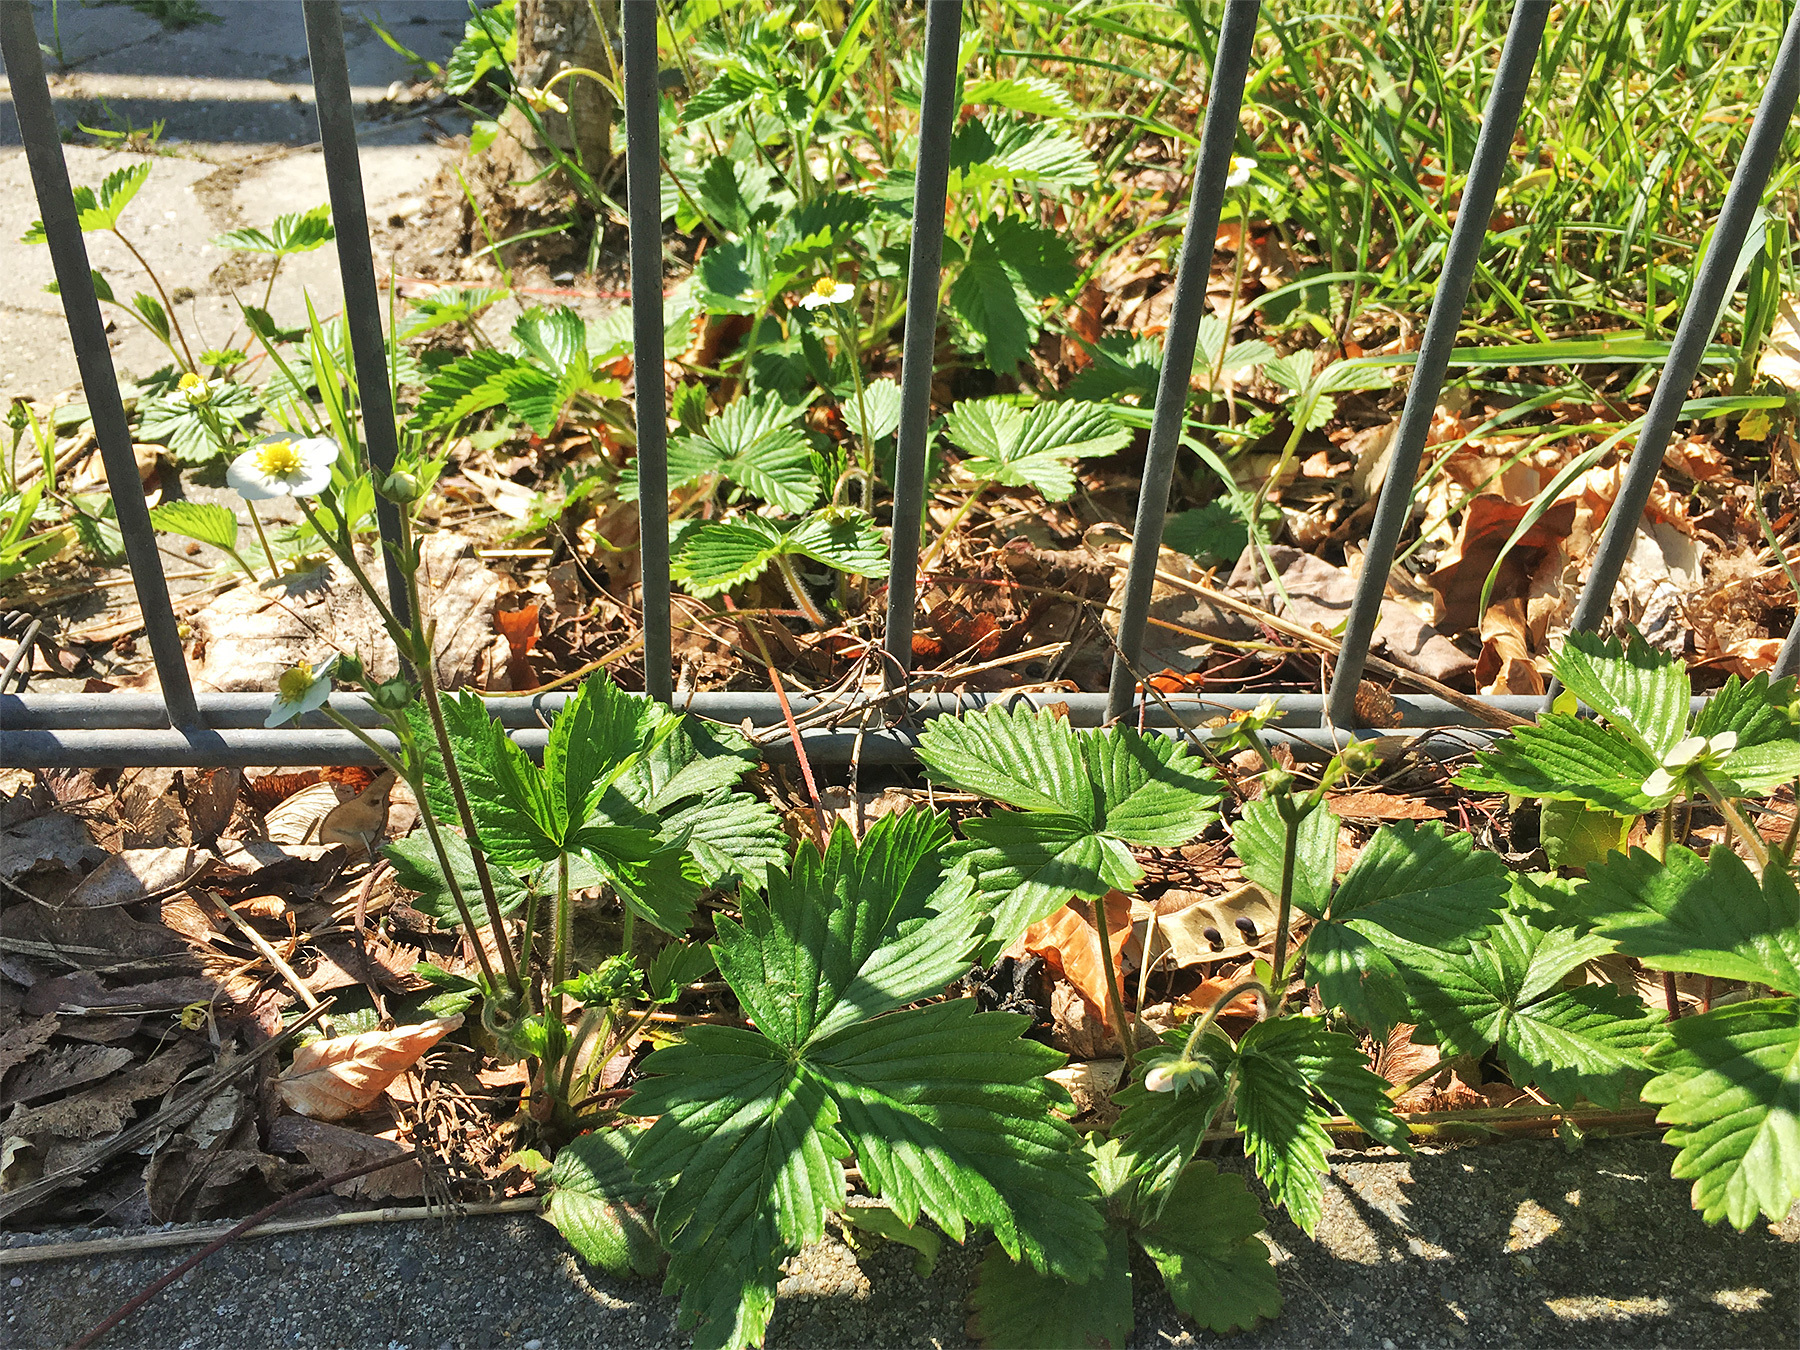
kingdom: Plantae
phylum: Tracheophyta
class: Magnoliopsida
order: Rosales
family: Rosaceae
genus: Fragaria
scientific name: Fragaria vesca
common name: Wild strawberry
